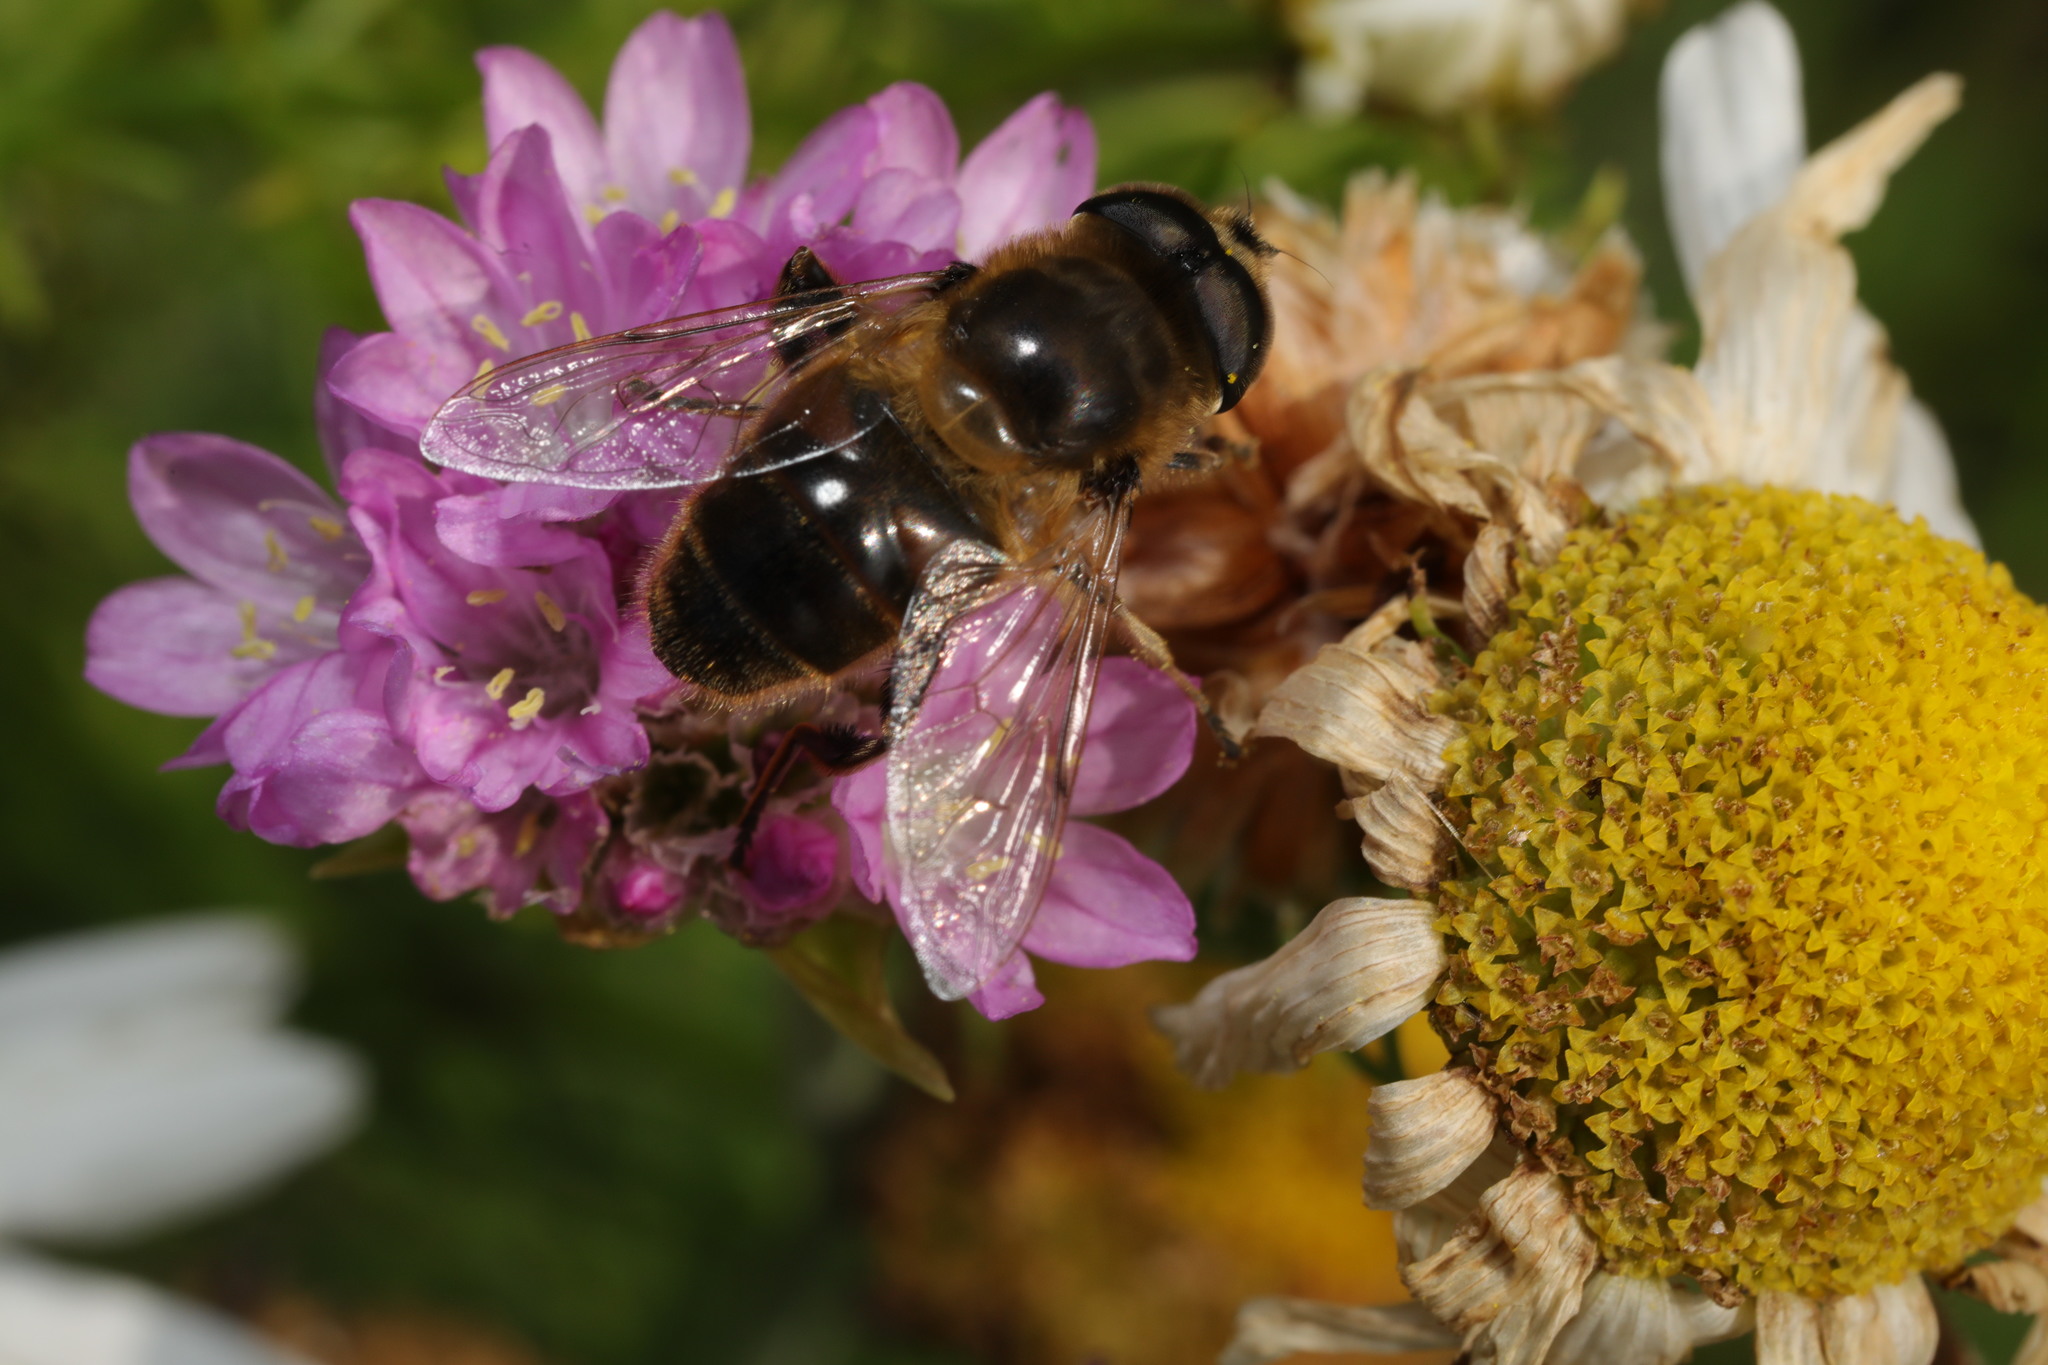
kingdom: Animalia
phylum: Arthropoda
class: Insecta
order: Diptera
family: Syrphidae
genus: Eristalis
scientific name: Eristalis tenax
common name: Drone fly
